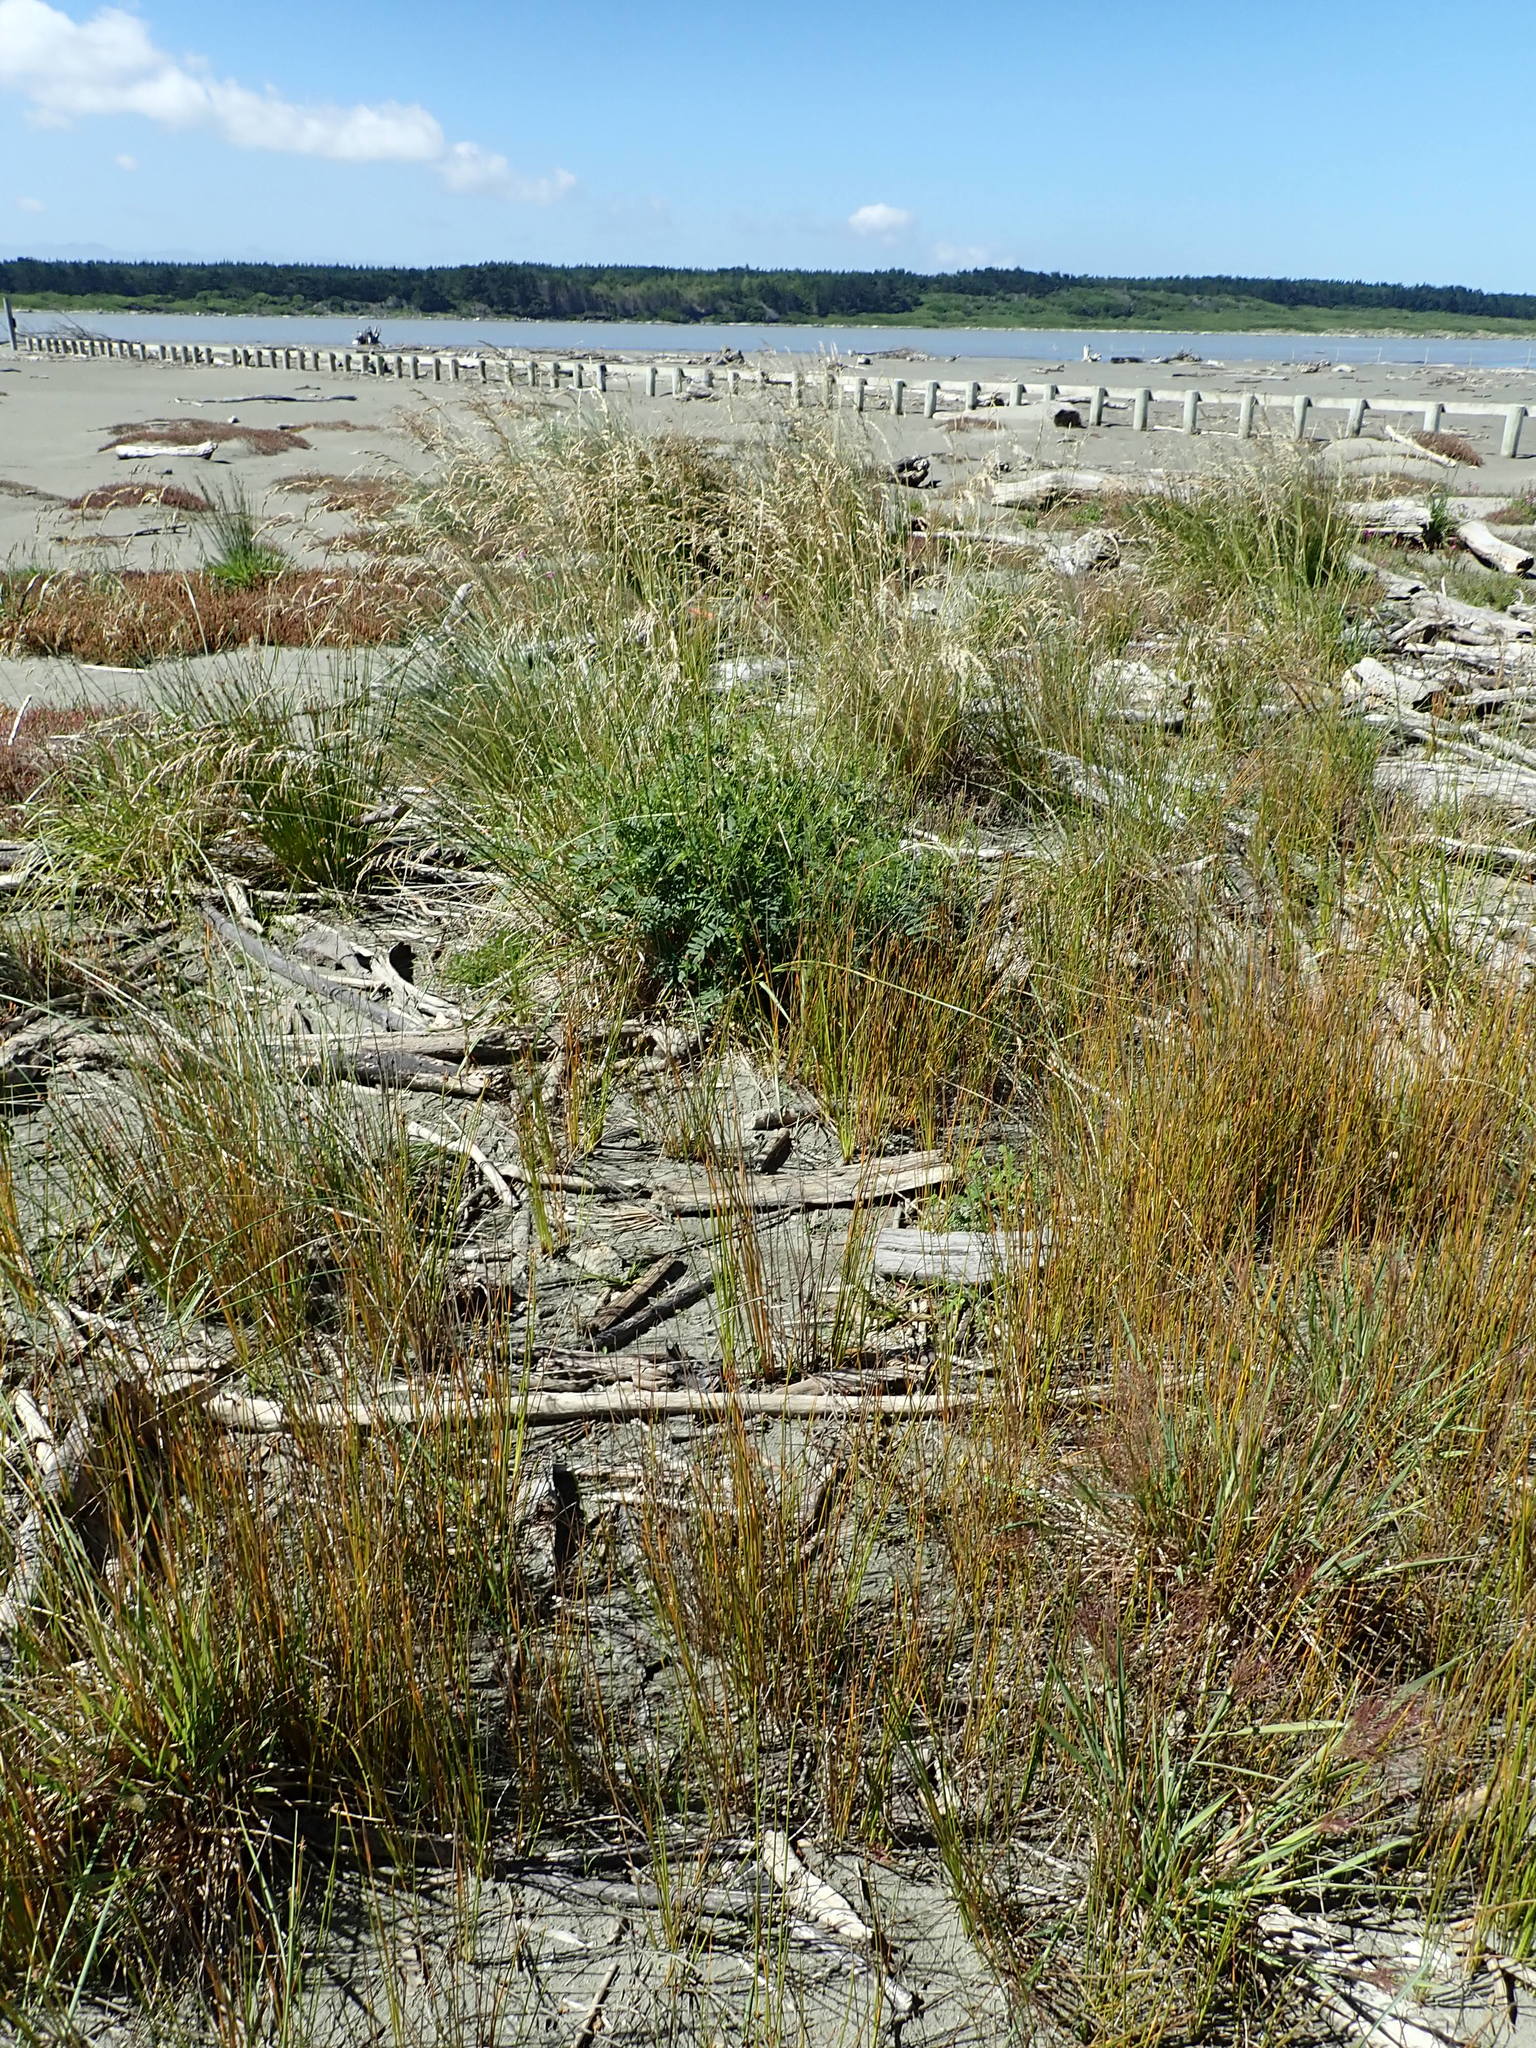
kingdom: Animalia
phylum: Arthropoda
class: Insecta
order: Blattodea
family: Blattidae
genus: Maoriblatta
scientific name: Maoriblatta novaeseelandiae
